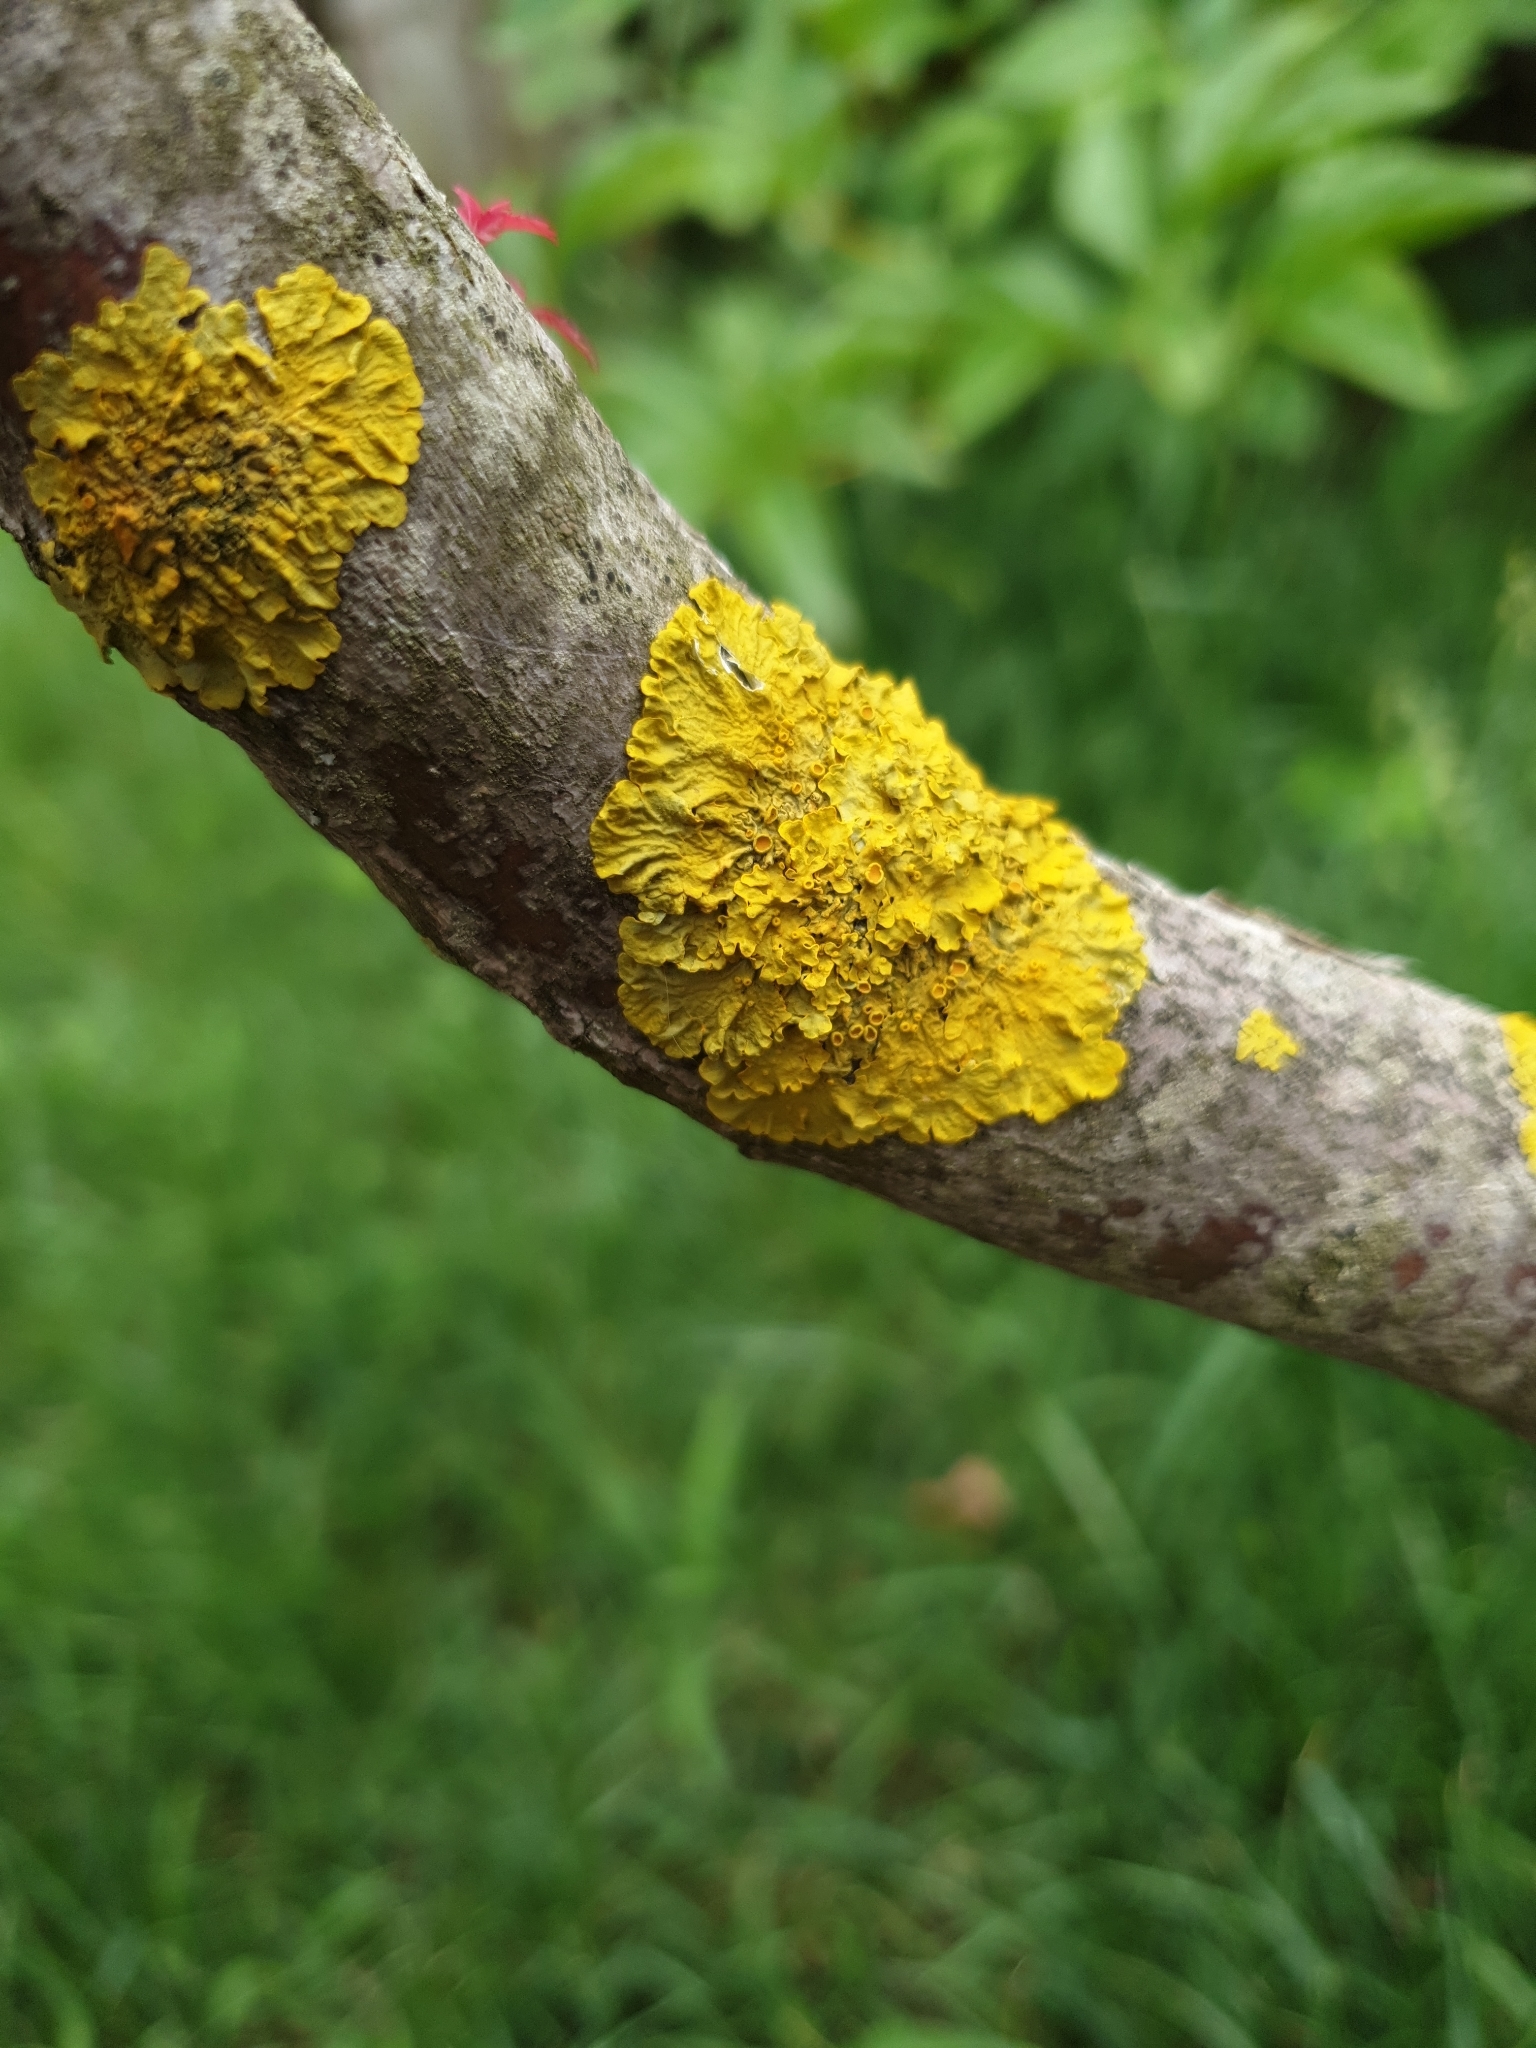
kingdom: Fungi
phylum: Ascomycota
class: Lecanoromycetes
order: Teloschistales
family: Teloschistaceae
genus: Xanthoria
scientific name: Xanthoria parietina
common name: Common orange lichen
